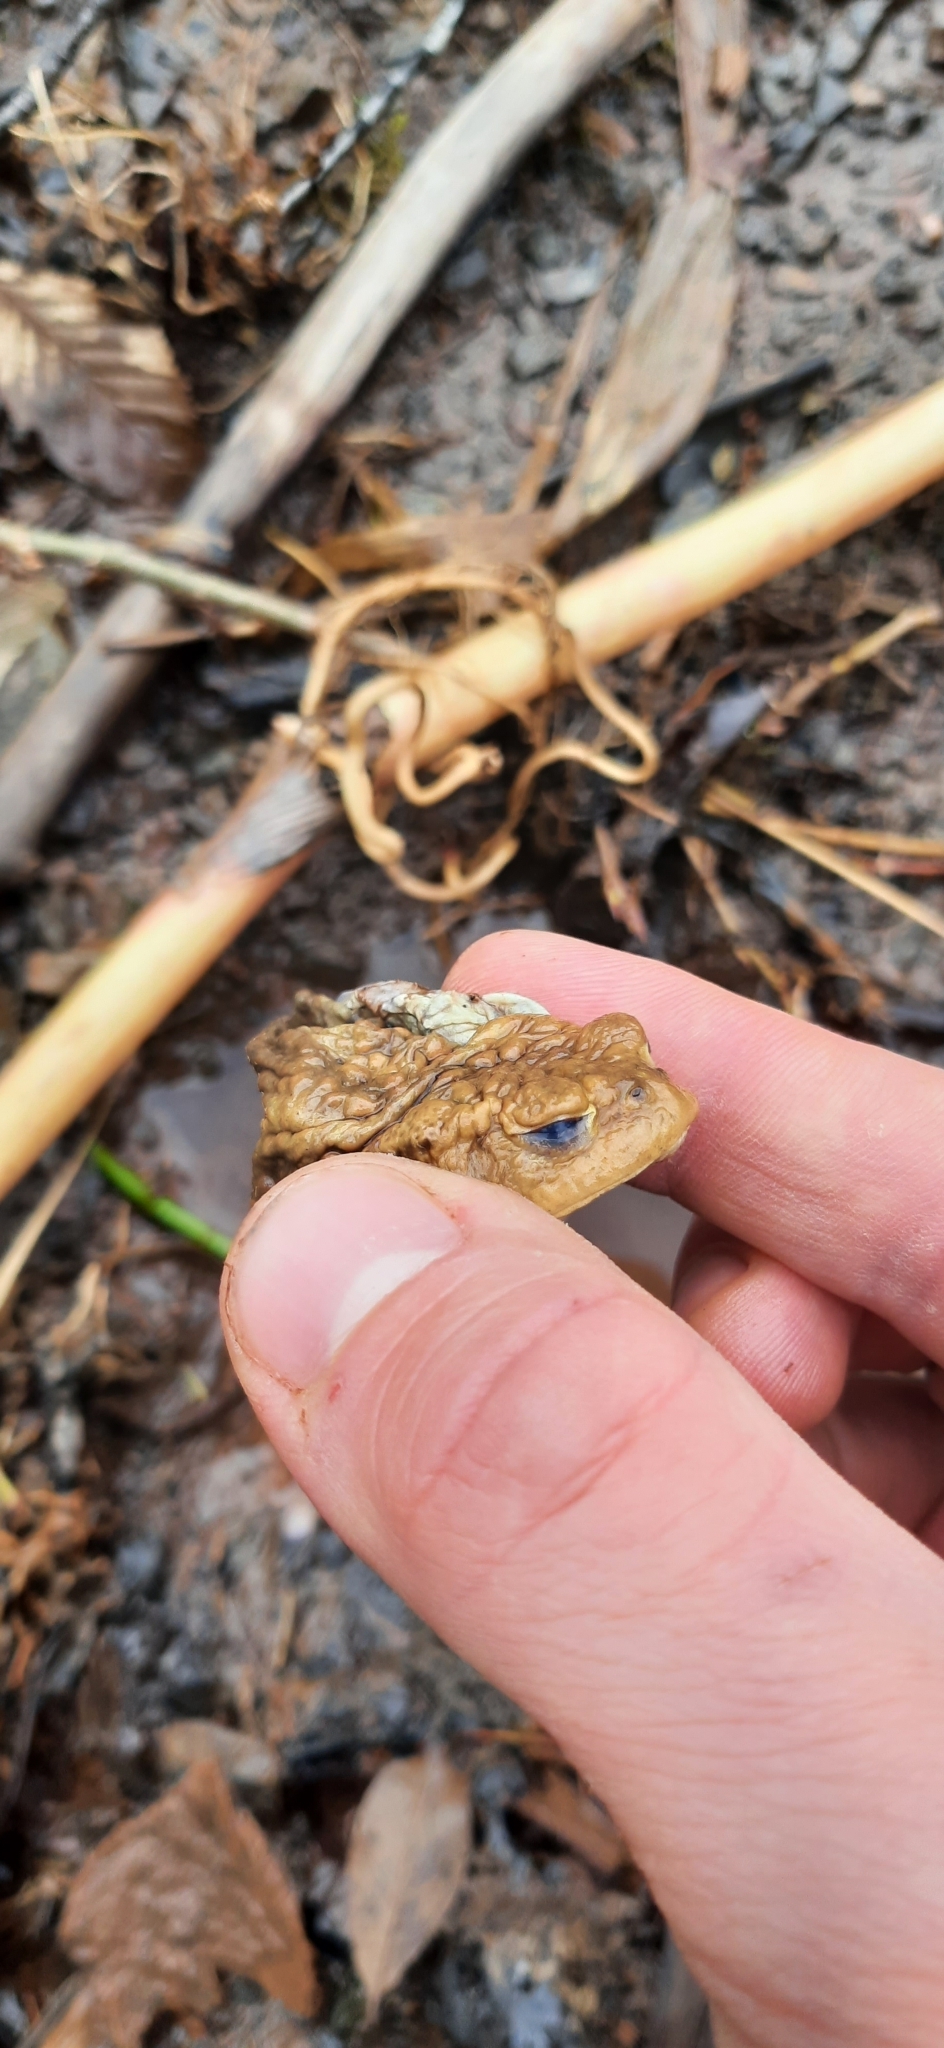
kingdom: Animalia
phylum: Chordata
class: Amphibia
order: Anura
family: Bufonidae
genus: Bufo
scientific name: Bufo bufo
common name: Common toad
